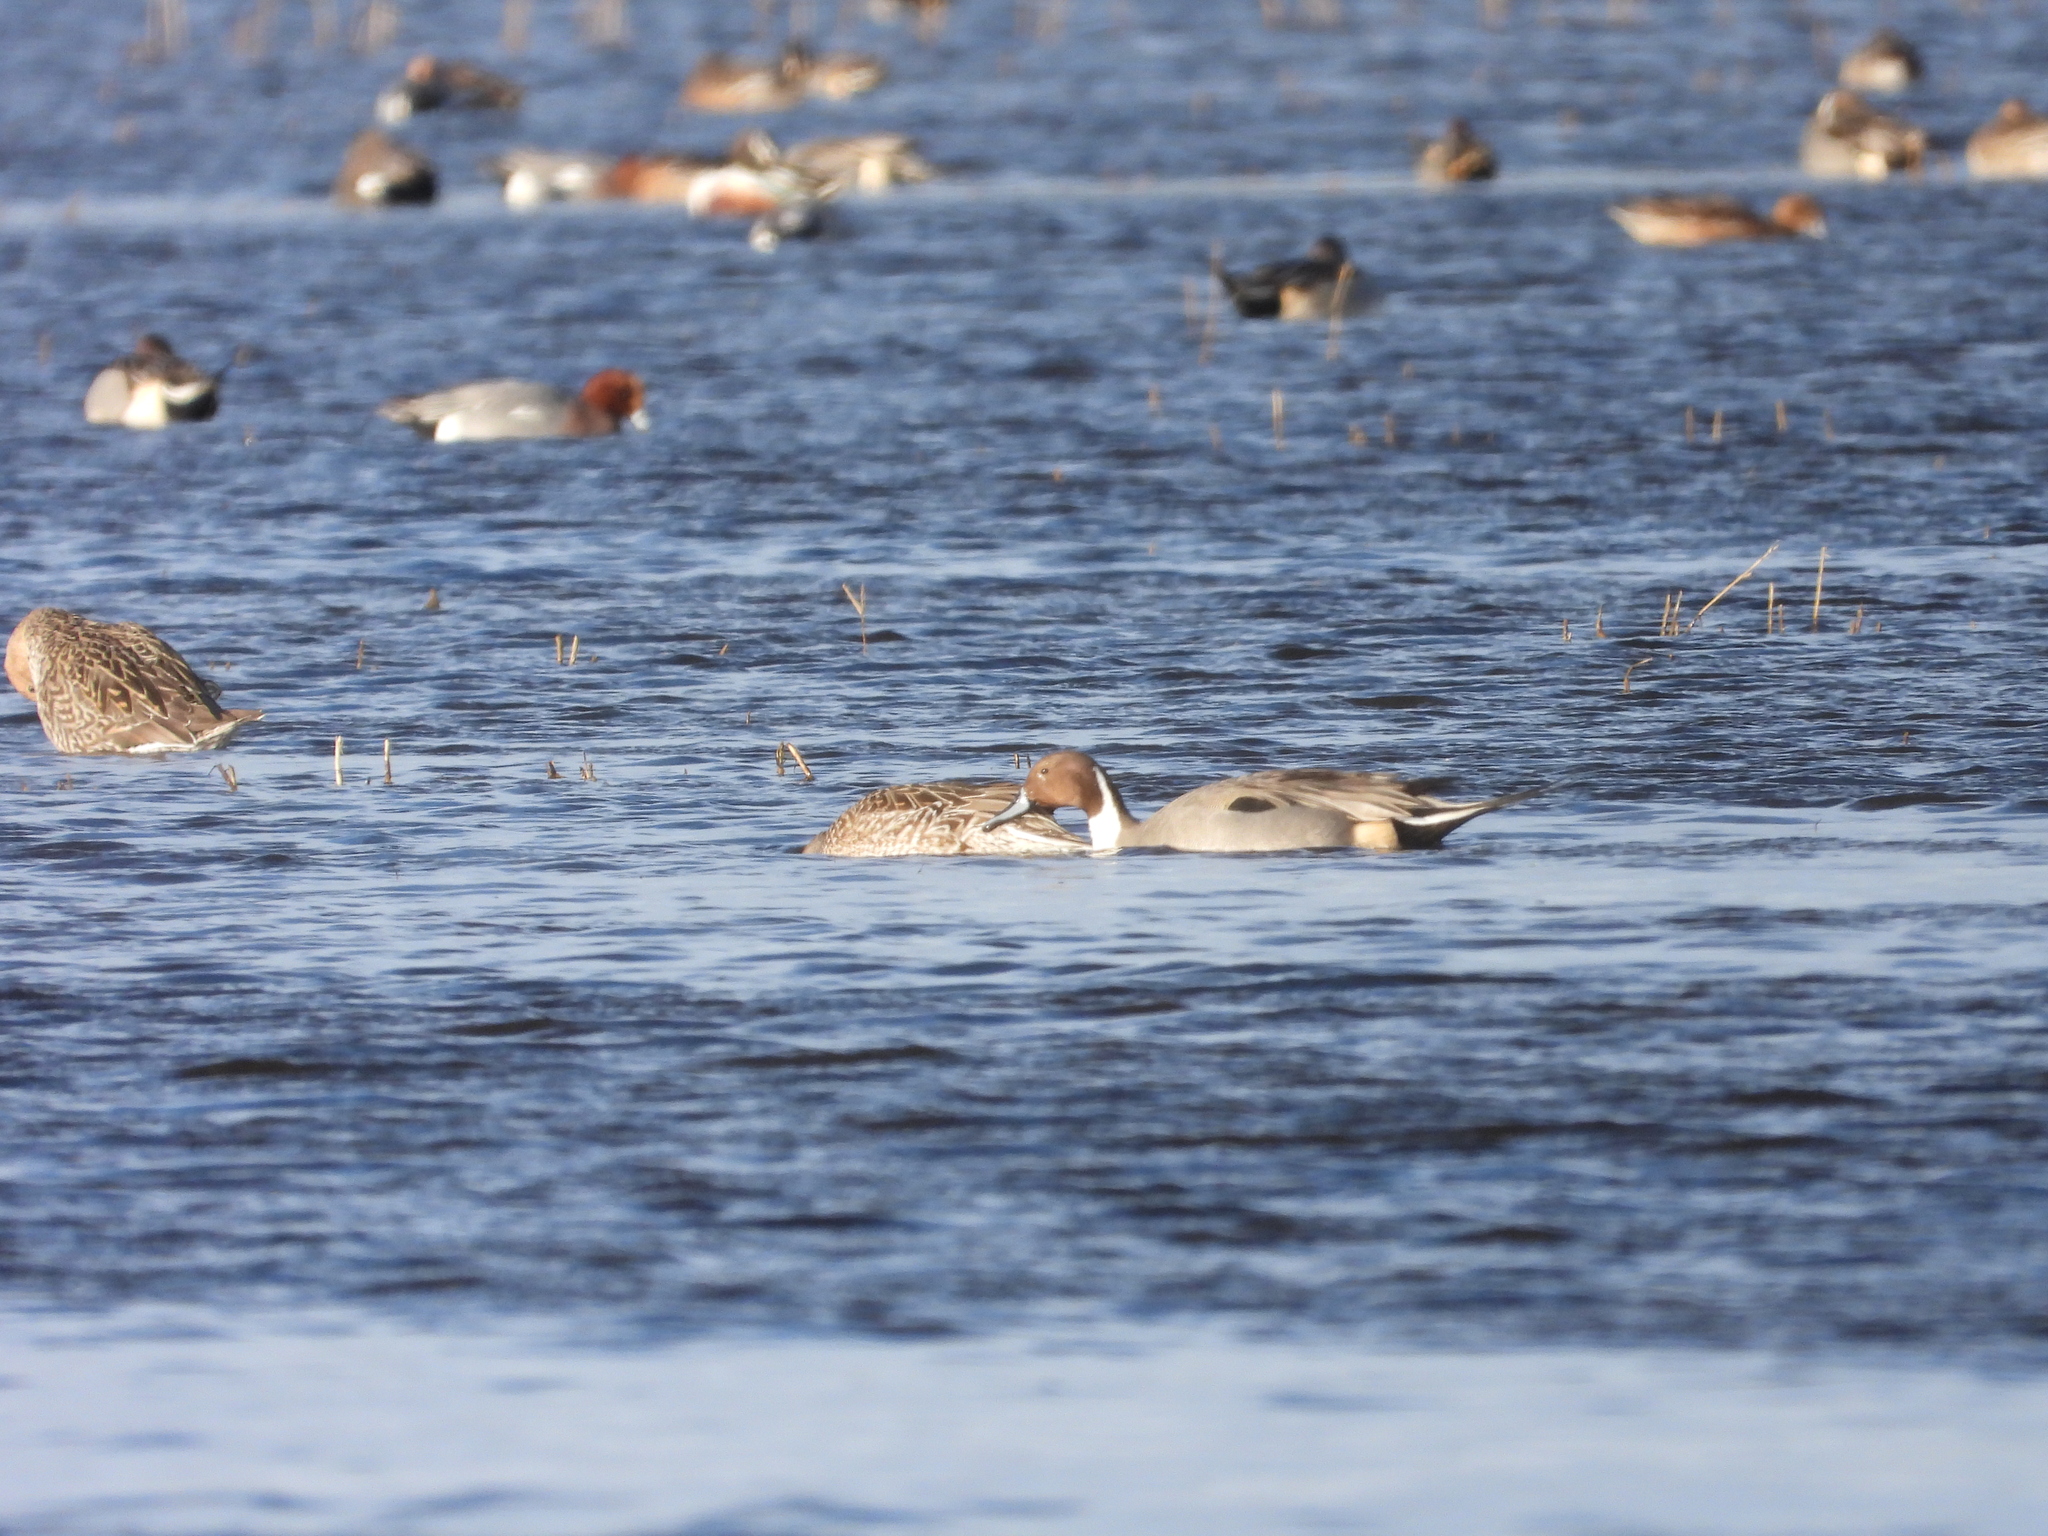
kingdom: Animalia
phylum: Chordata
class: Aves
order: Anseriformes
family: Anatidae
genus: Anas
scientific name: Anas acuta
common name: Northern pintail
